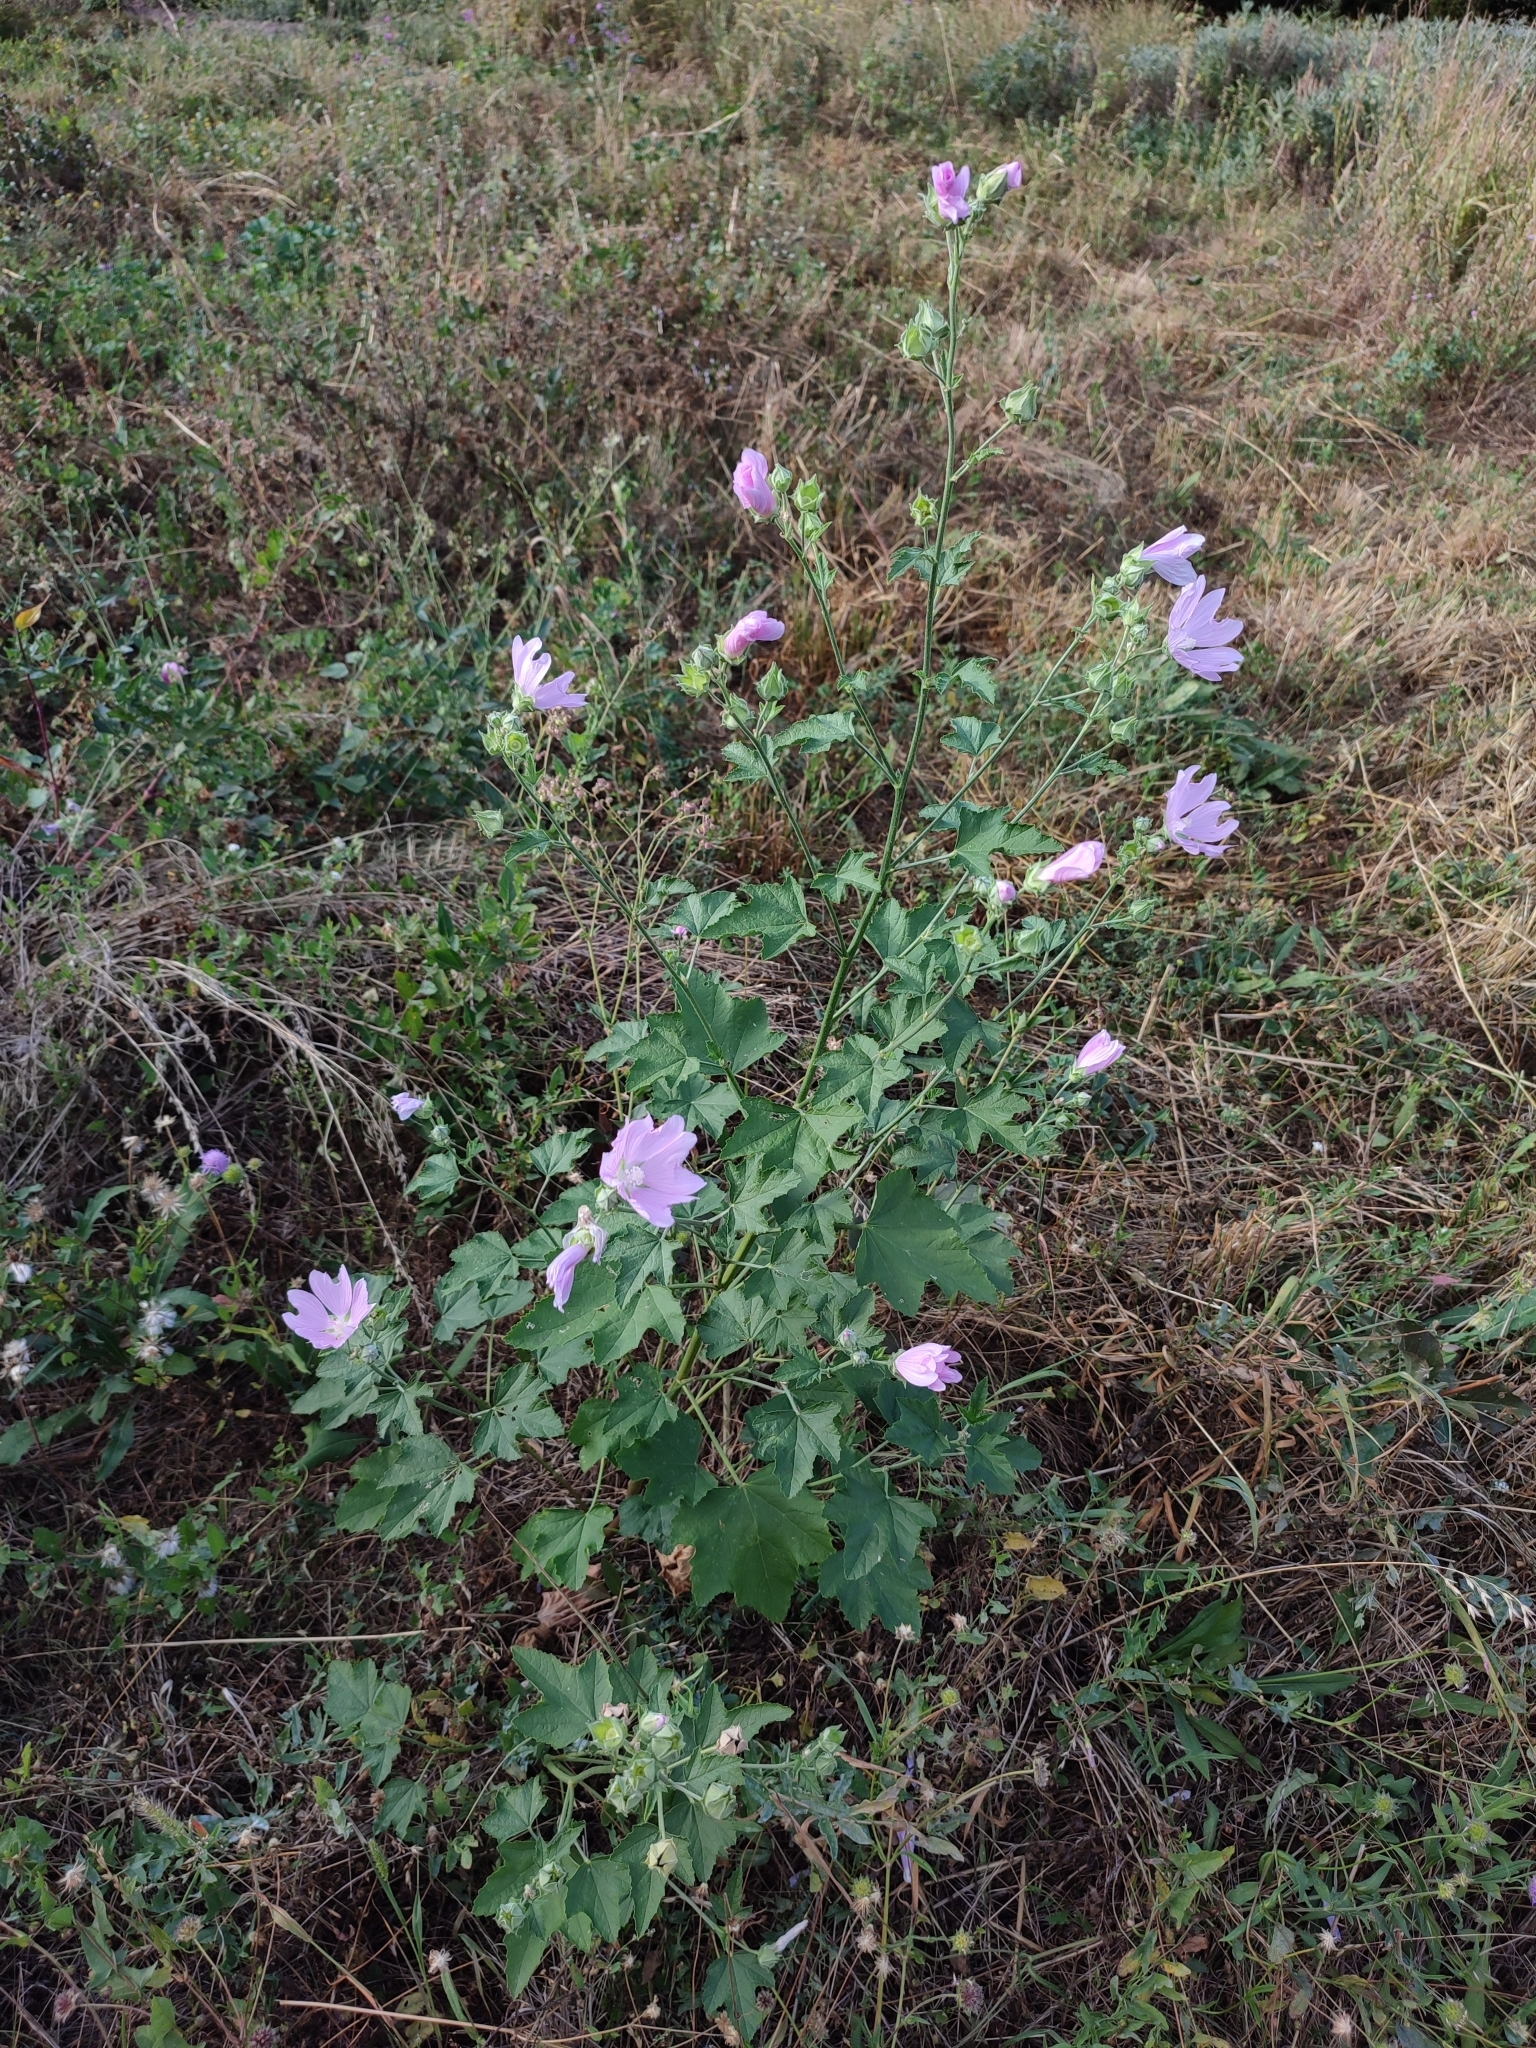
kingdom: Plantae
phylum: Tracheophyta
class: Magnoliopsida
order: Malvales
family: Malvaceae
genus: Malva
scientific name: Malva thuringiaca
